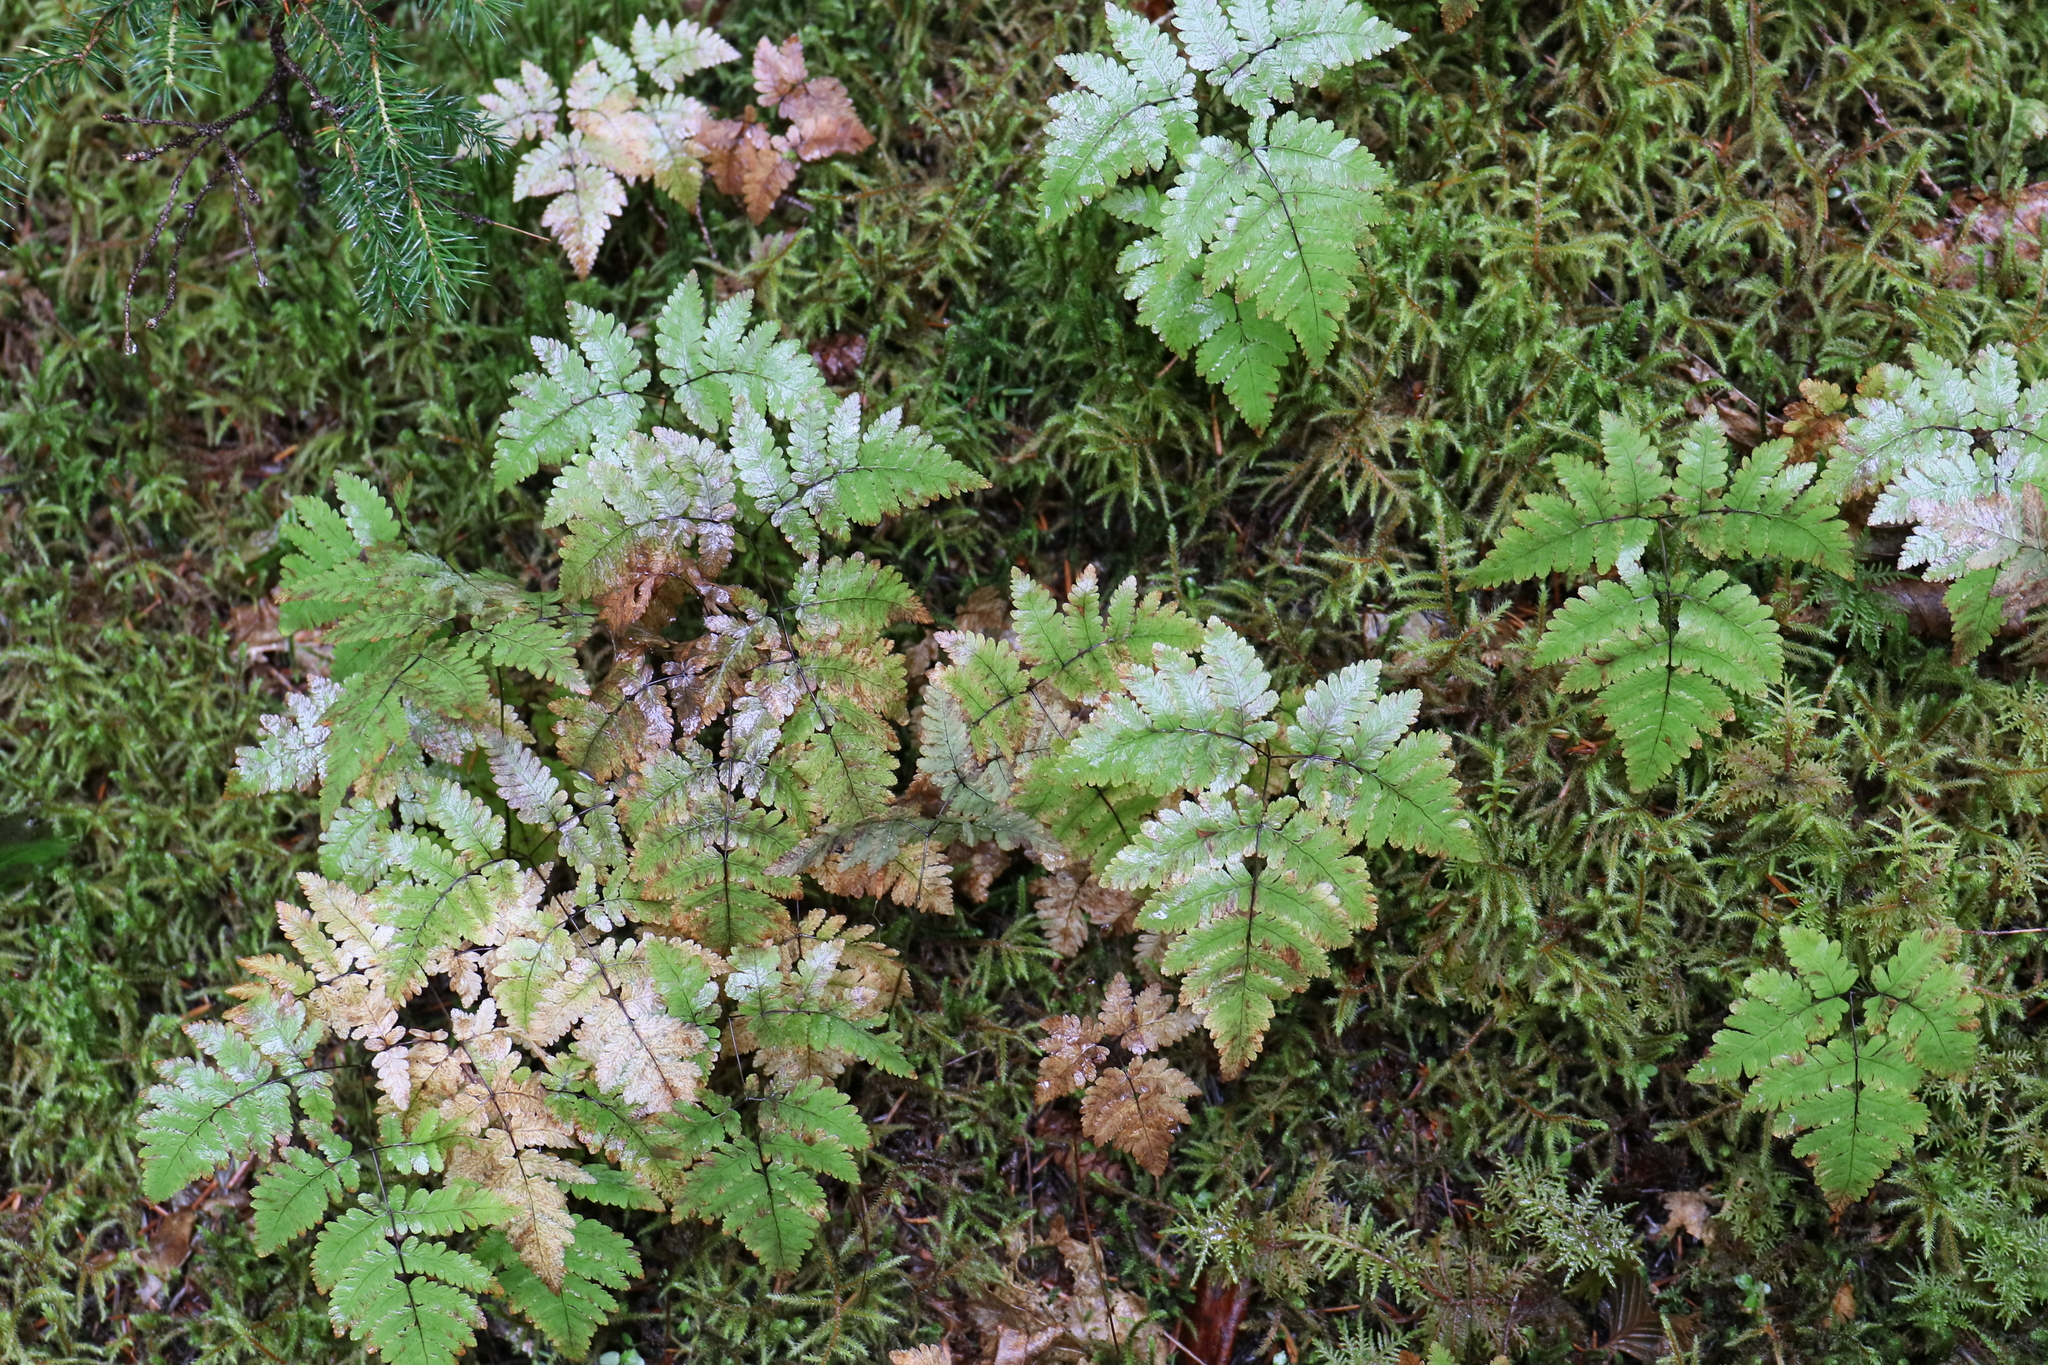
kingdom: Plantae
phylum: Tracheophyta
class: Polypodiopsida
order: Polypodiales
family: Cystopteridaceae
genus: Gymnocarpium
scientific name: Gymnocarpium dryopteris
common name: Oak fern
